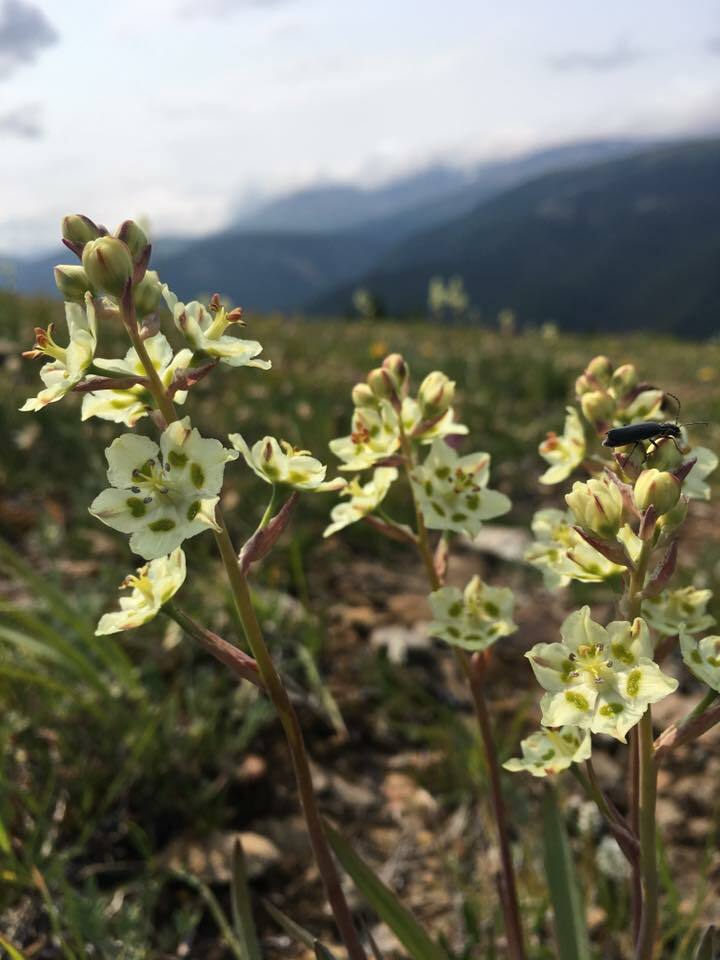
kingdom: Plantae
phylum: Tracheophyta
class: Liliopsida
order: Liliales
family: Melanthiaceae
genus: Anticlea
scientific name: Anticlea elegans
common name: Mountain death camas
